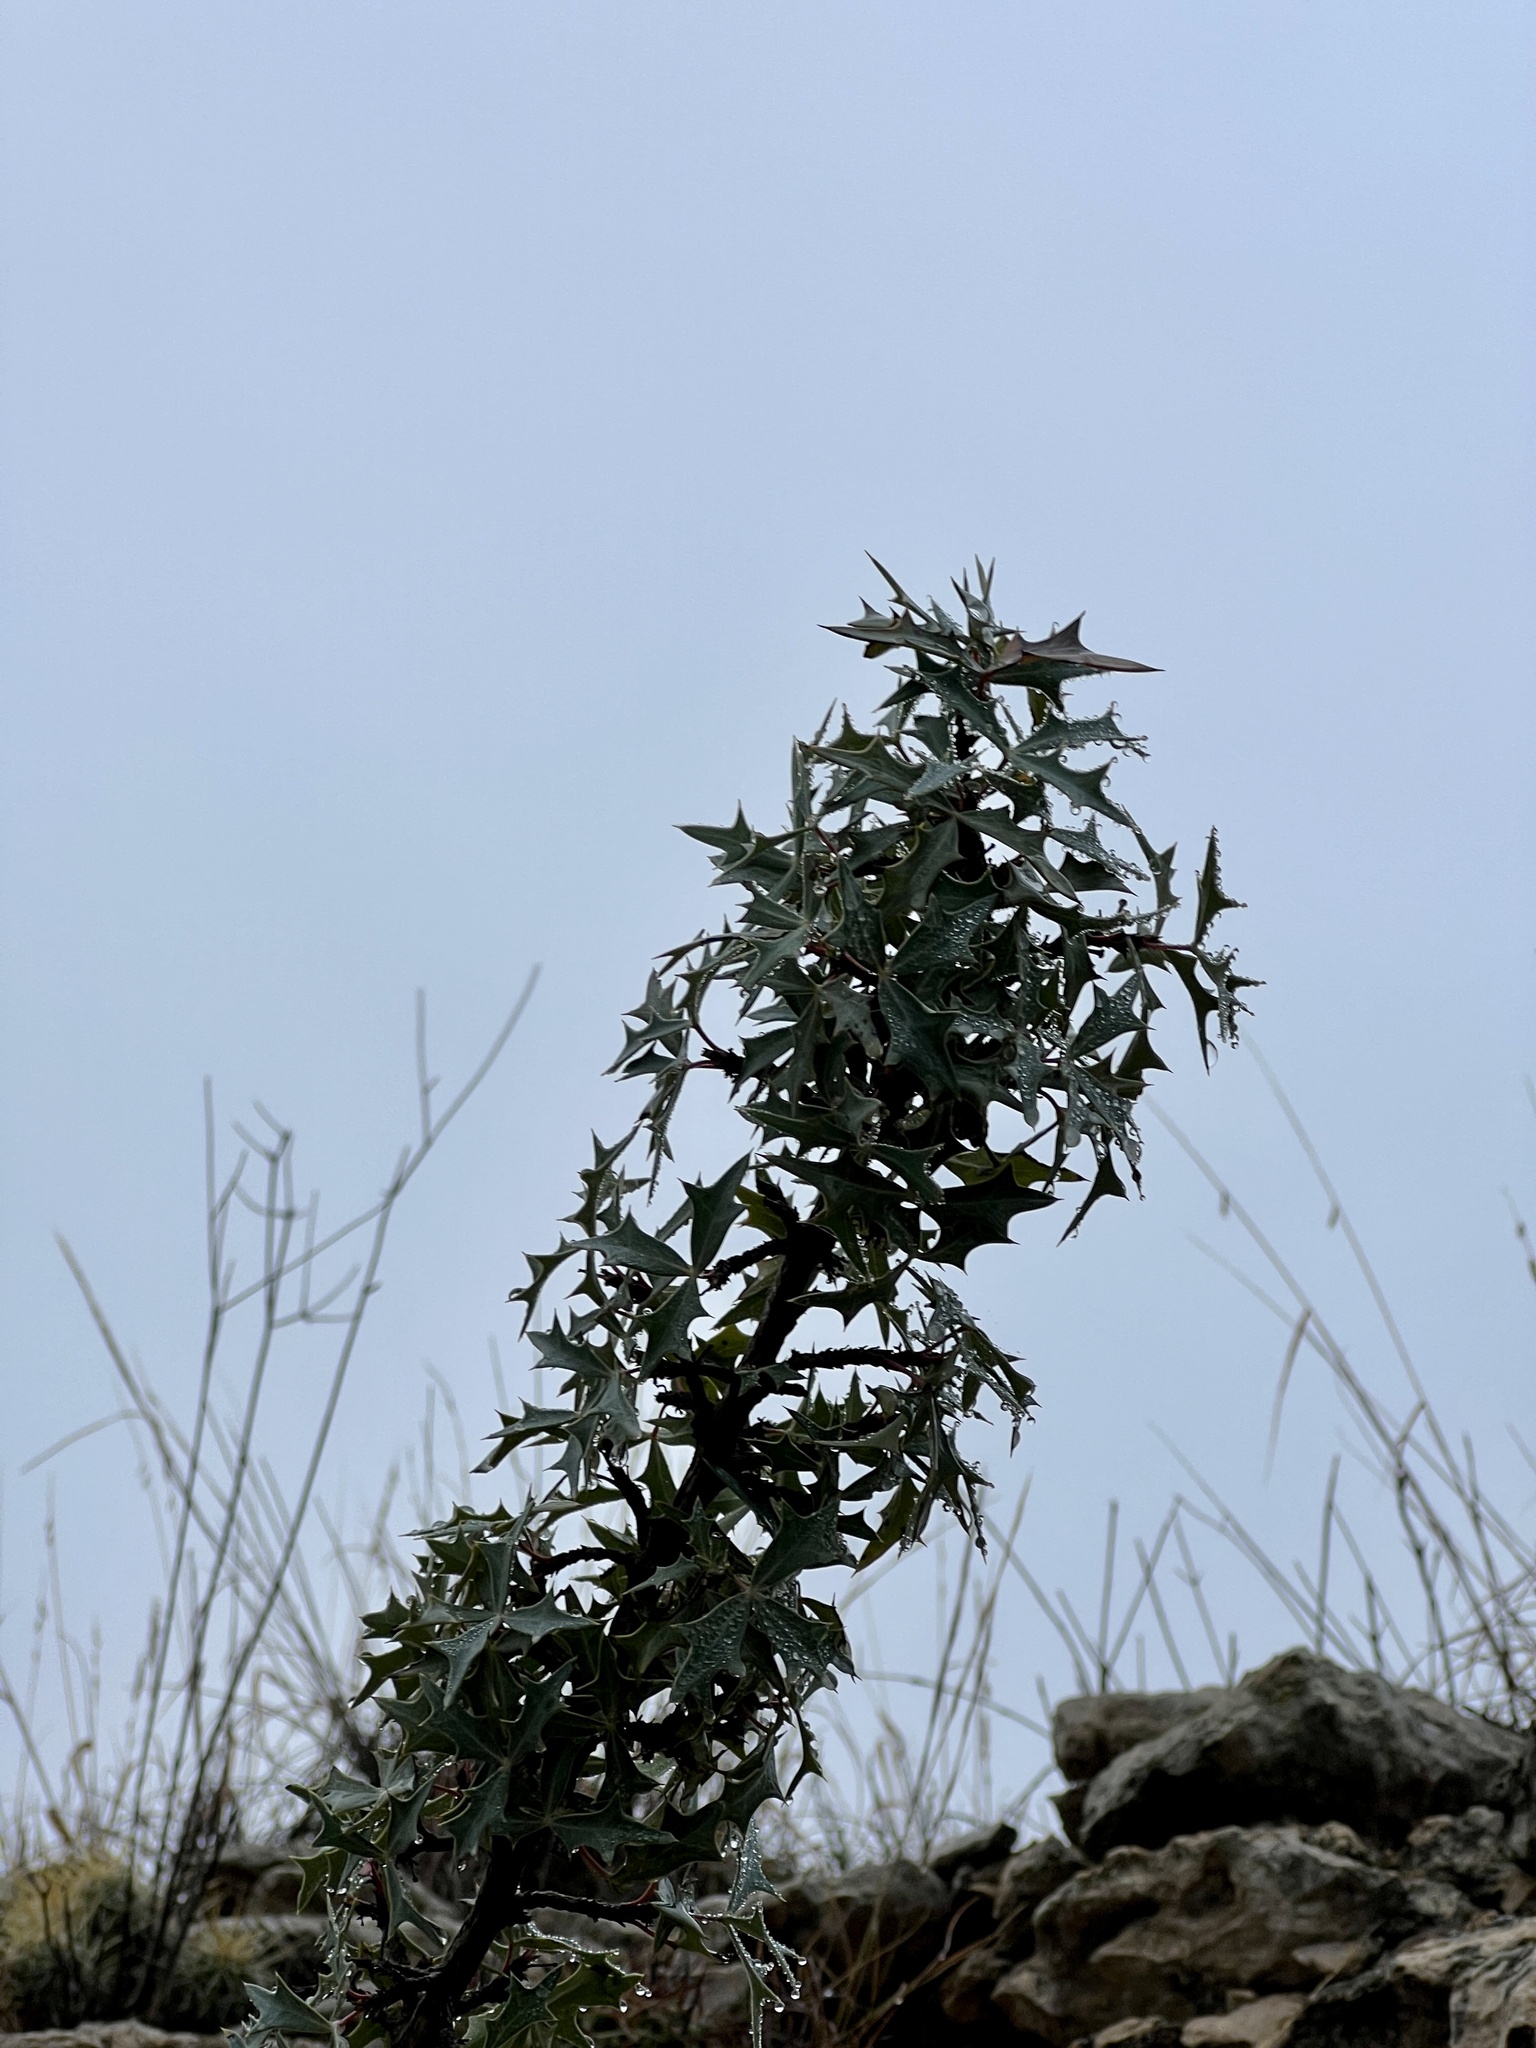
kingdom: Plantae
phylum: Tracheophyta
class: Magnoliopsida
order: Ranunculales
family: Berberidaceae
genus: Alloberberis
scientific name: Alloberberis trifoliolata
